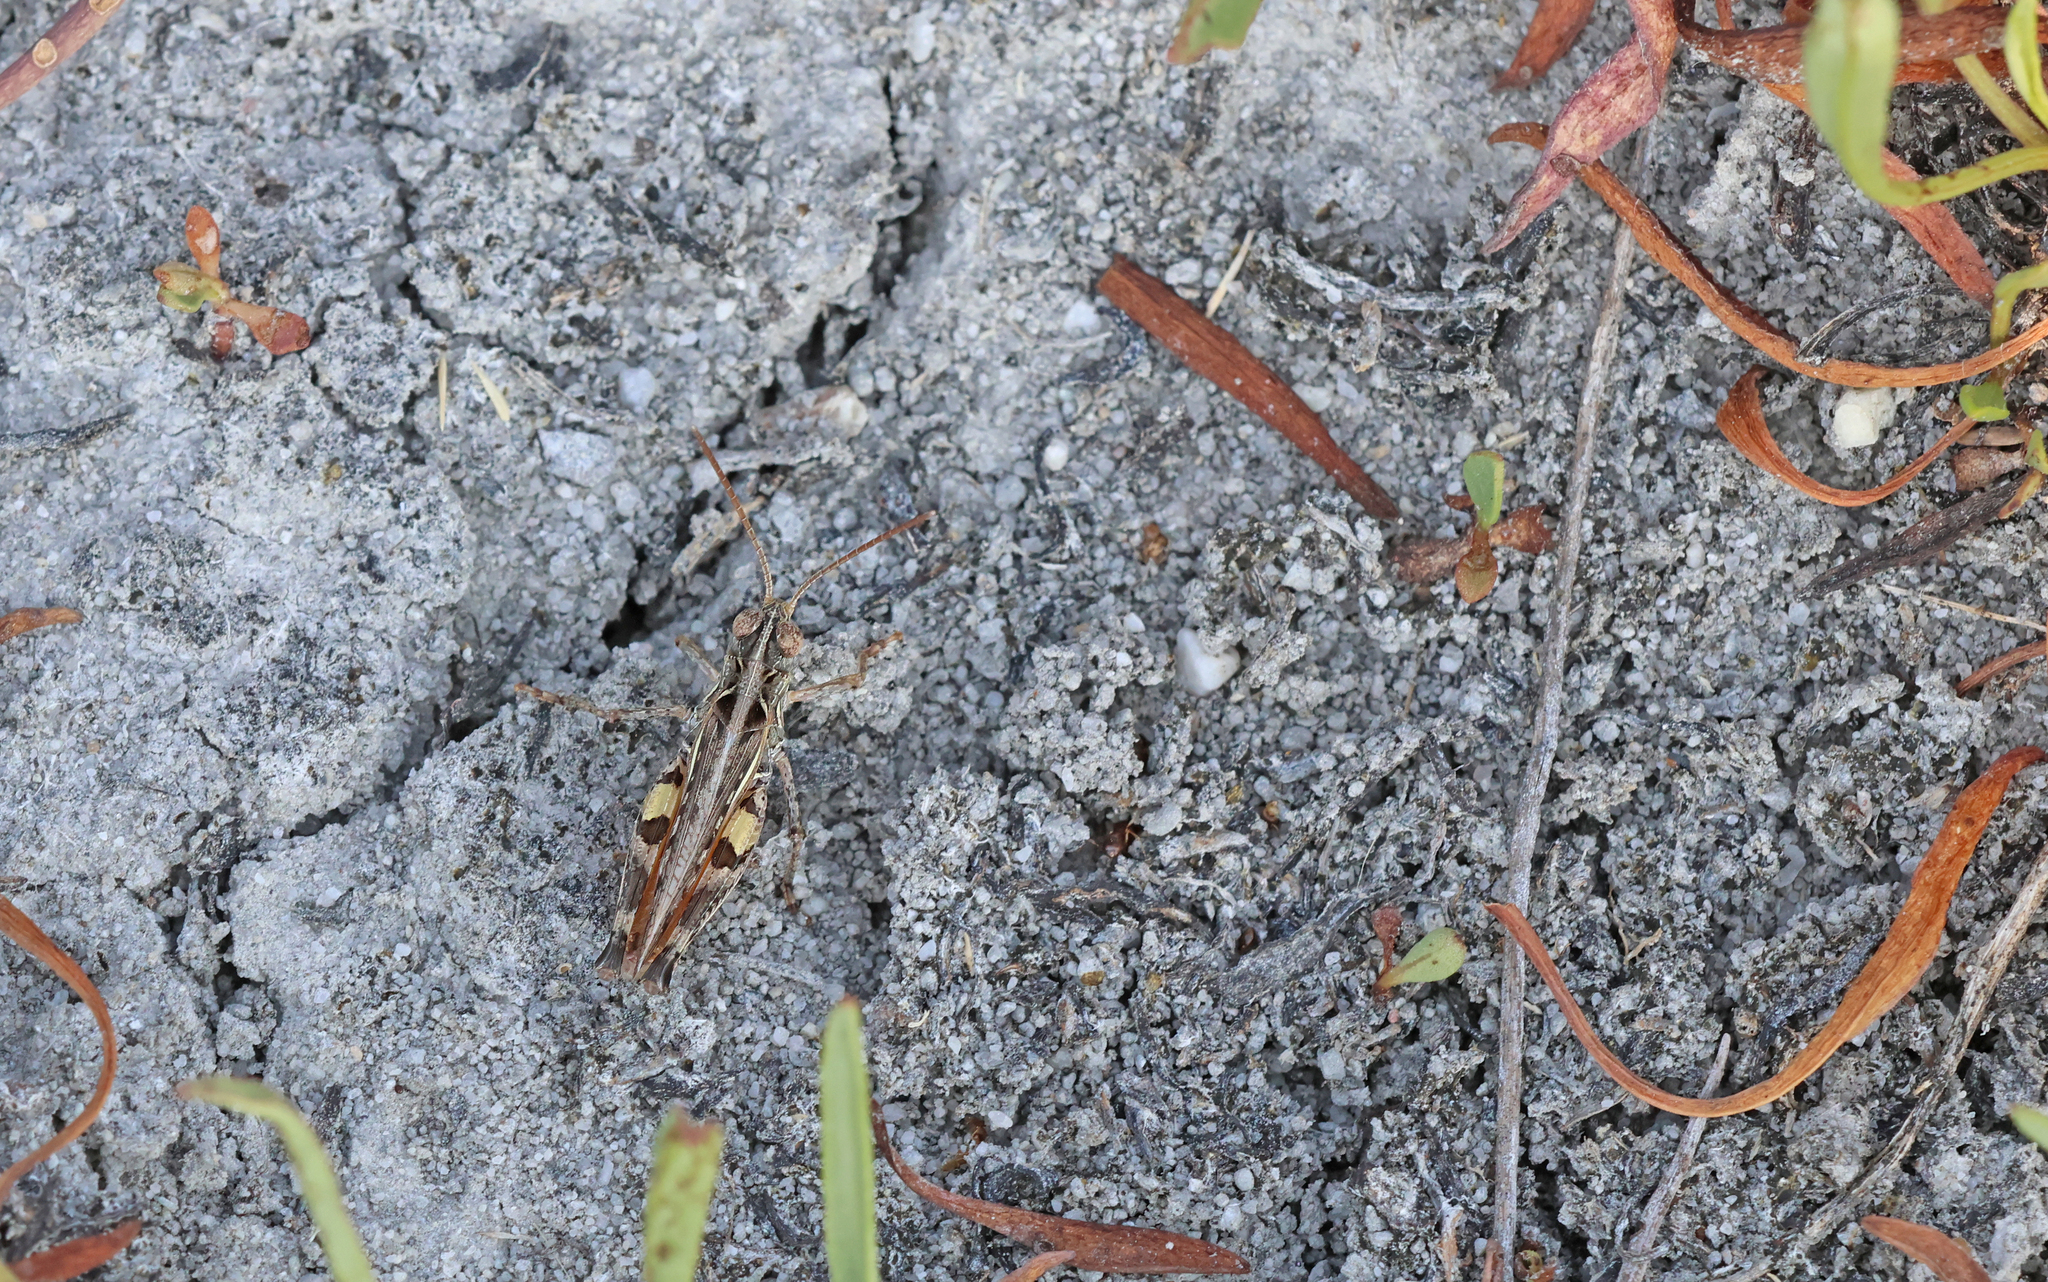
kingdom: Animalia
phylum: Arthropoda
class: Insecta
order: Orthoptera
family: Acrididae
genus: Dociostaurus
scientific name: Dociostaurus brevicollis
